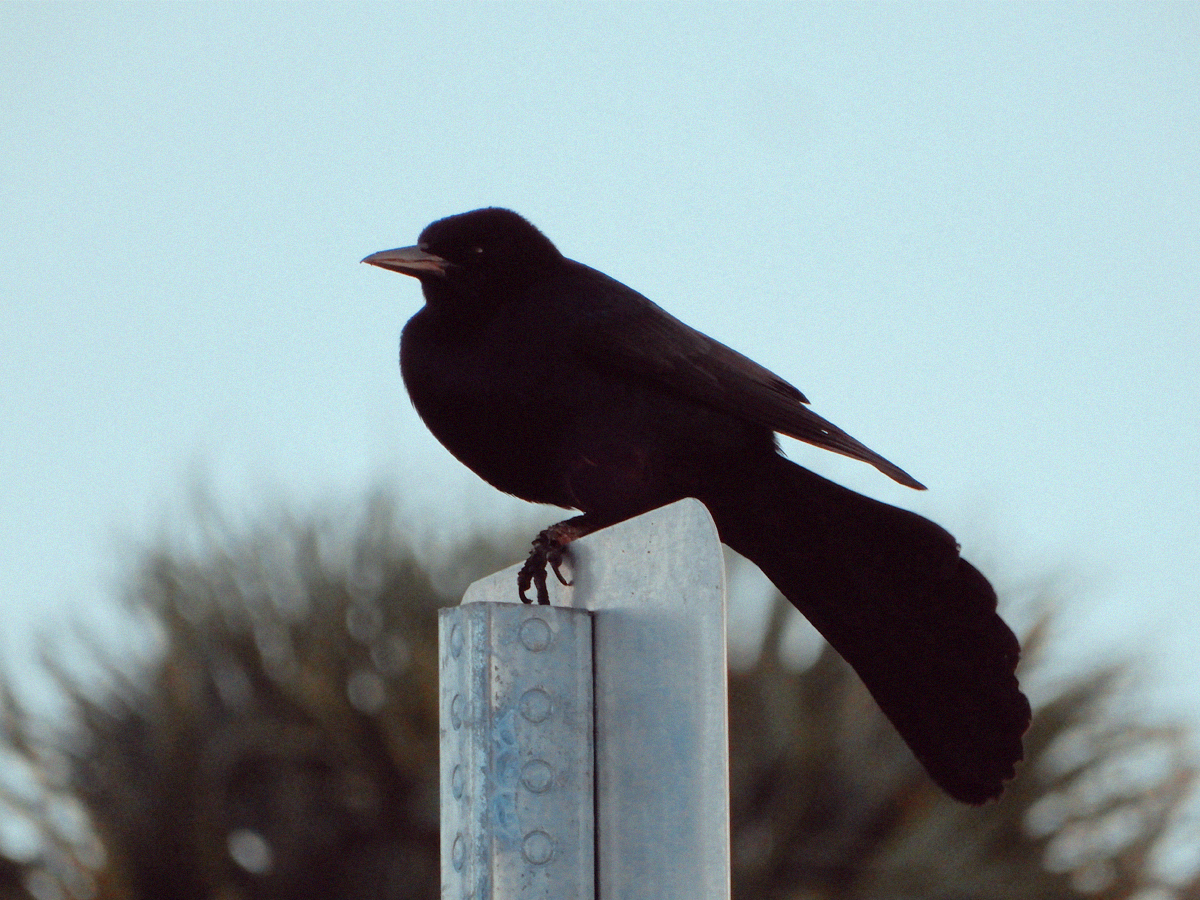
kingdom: Animalia
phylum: Chordata
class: Aves
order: Passeriformes
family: Icteridae
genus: Quiscalus
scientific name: Quiscalus major
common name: Boat-tailed grackle
